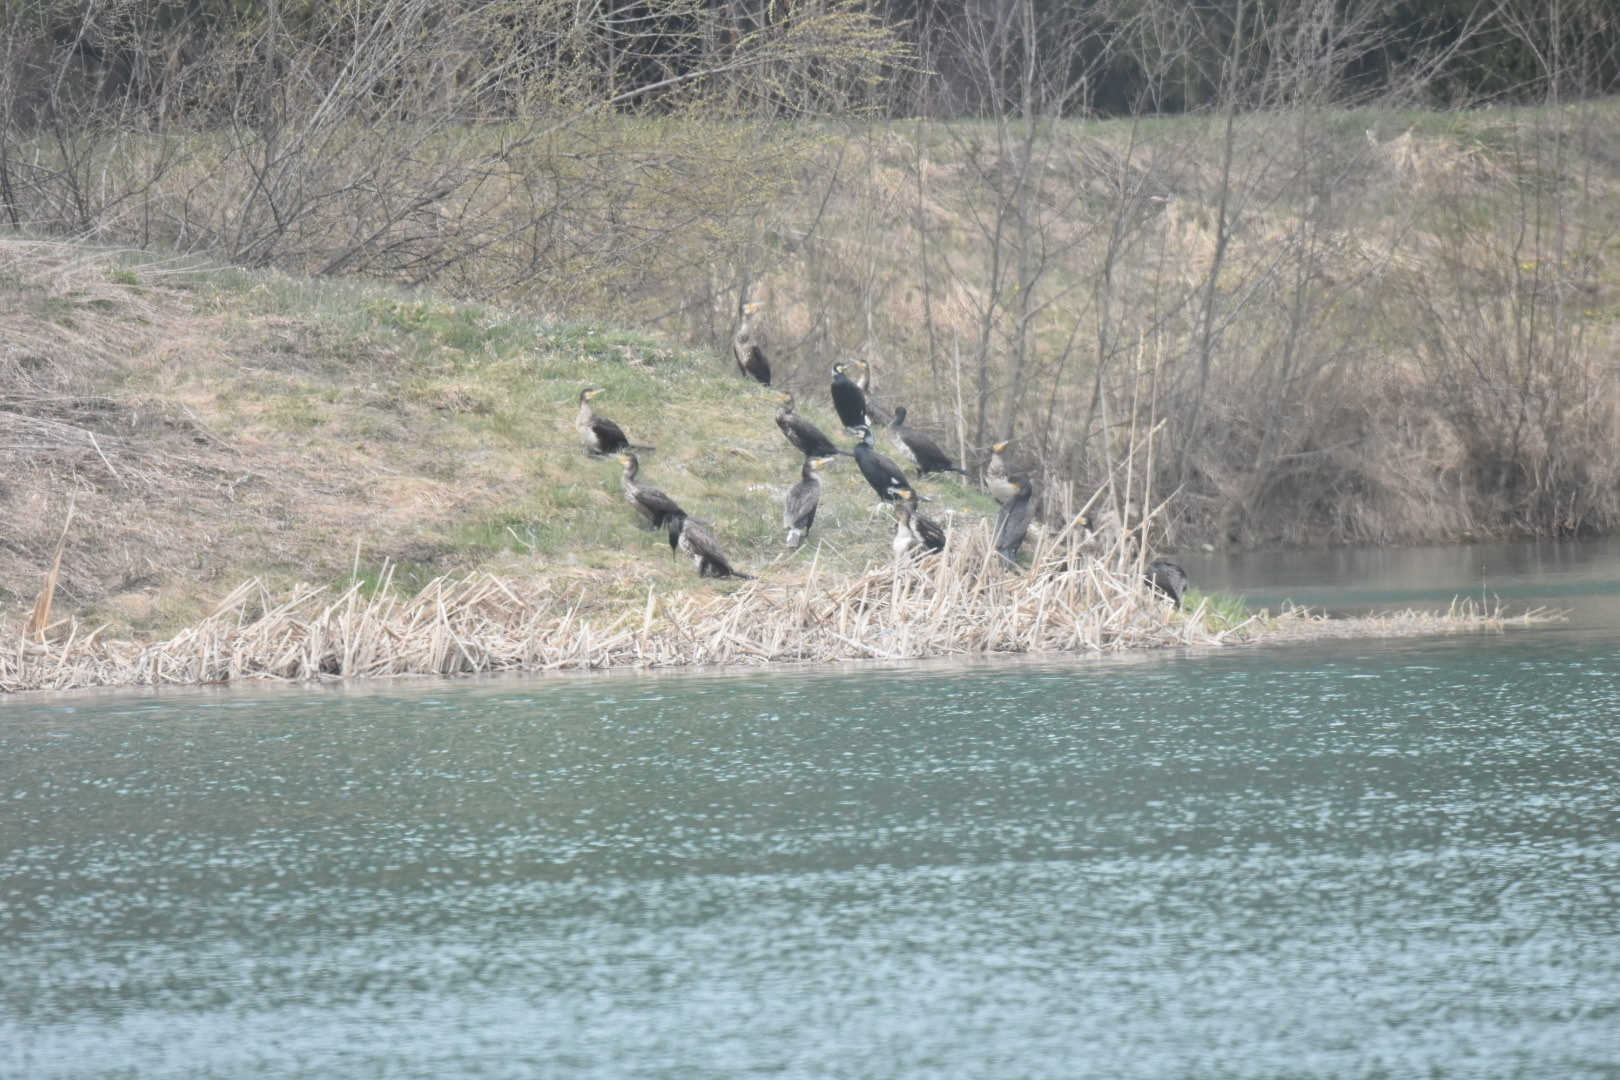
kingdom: Animalia
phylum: Chordata
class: Aves
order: Suliformes
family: Phalacrocoracidae
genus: Phalacrocorax
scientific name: Phalacrocorax carbo
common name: Great cormorant
